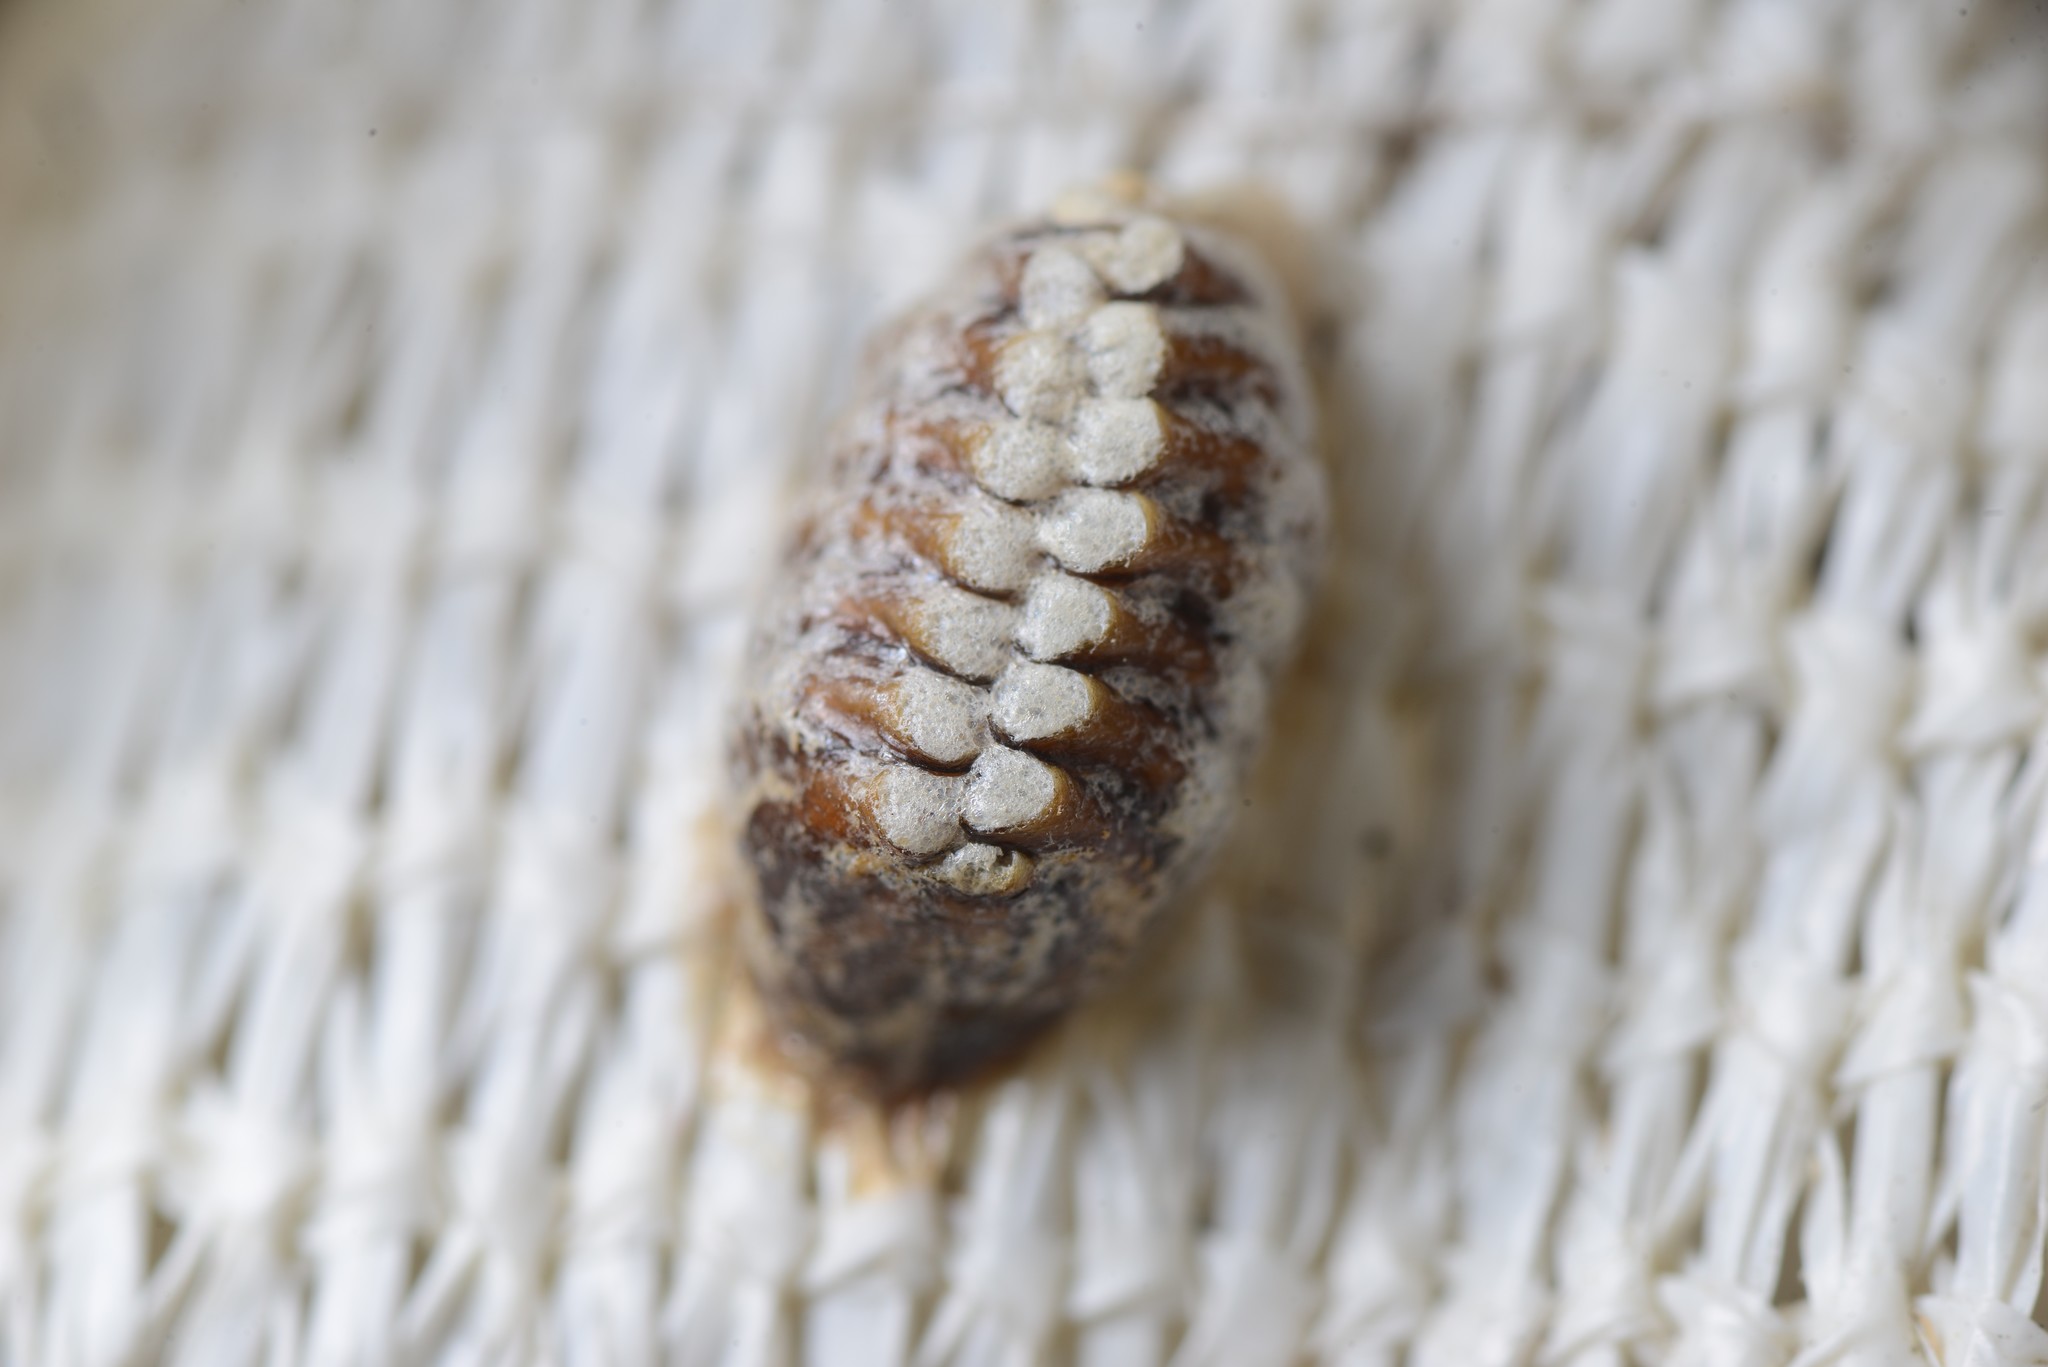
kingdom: Animalia
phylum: Arthropoda
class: Insecta
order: Mantodea
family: Mantidae
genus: Orthodera
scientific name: Orthodera novaezealandiae
